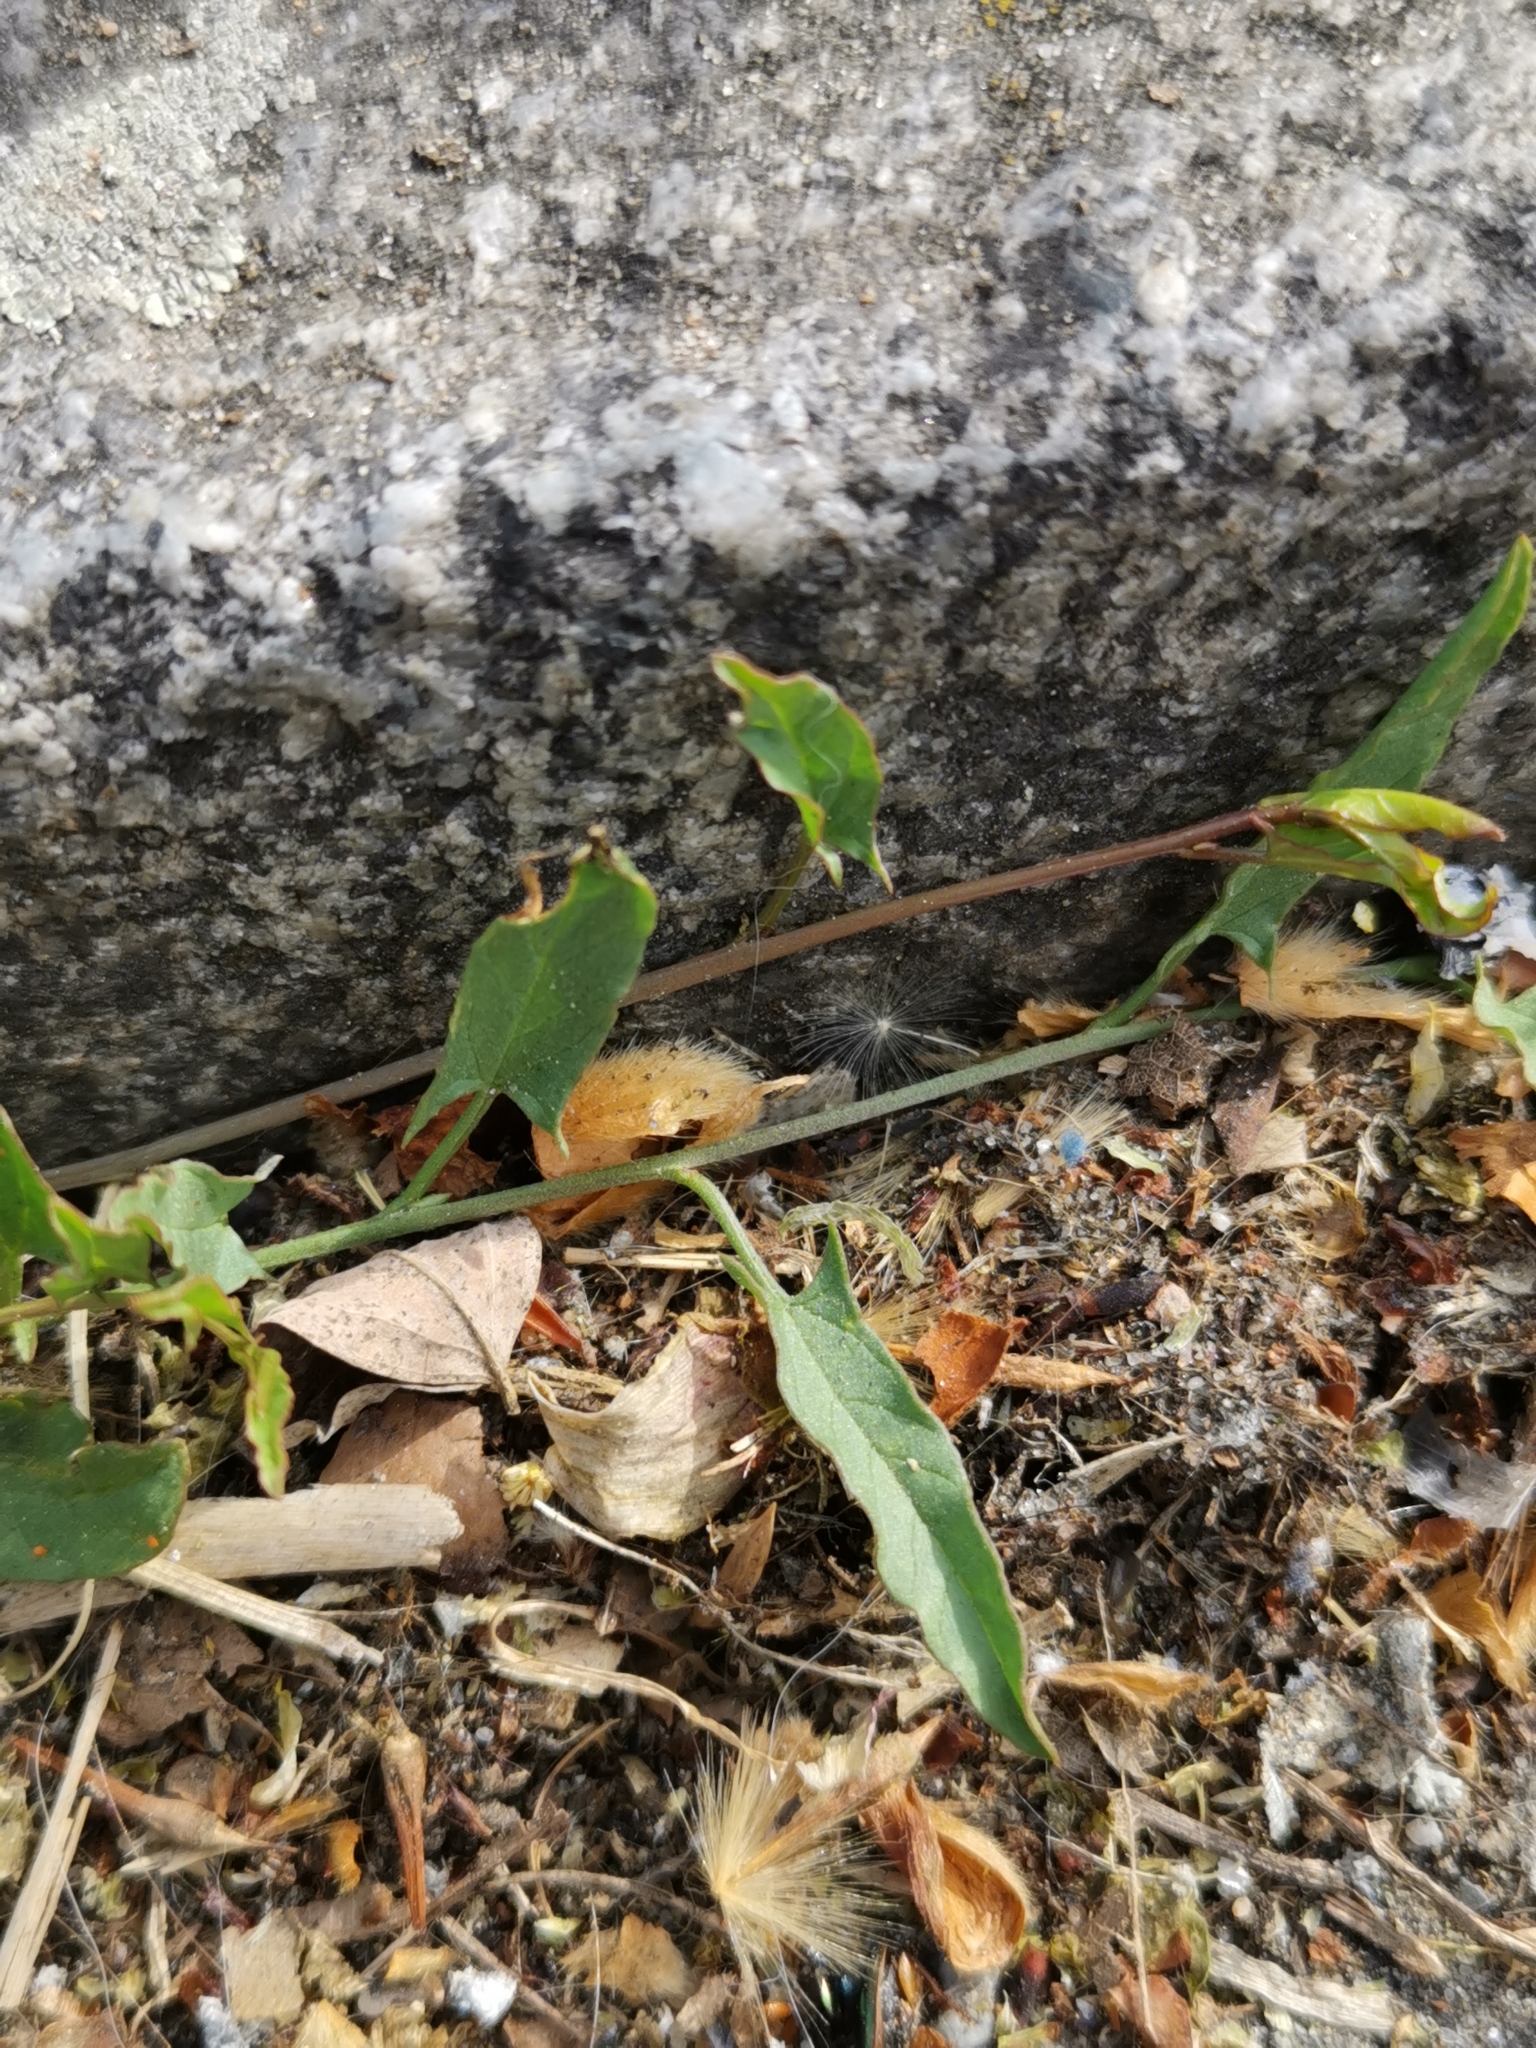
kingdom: Plantae
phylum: Tracheophyta
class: Magnoliopsida
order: Solanales
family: Convolvulaceae
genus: Convolvulus
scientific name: Convolvulus arvensis
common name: Field bindweed
